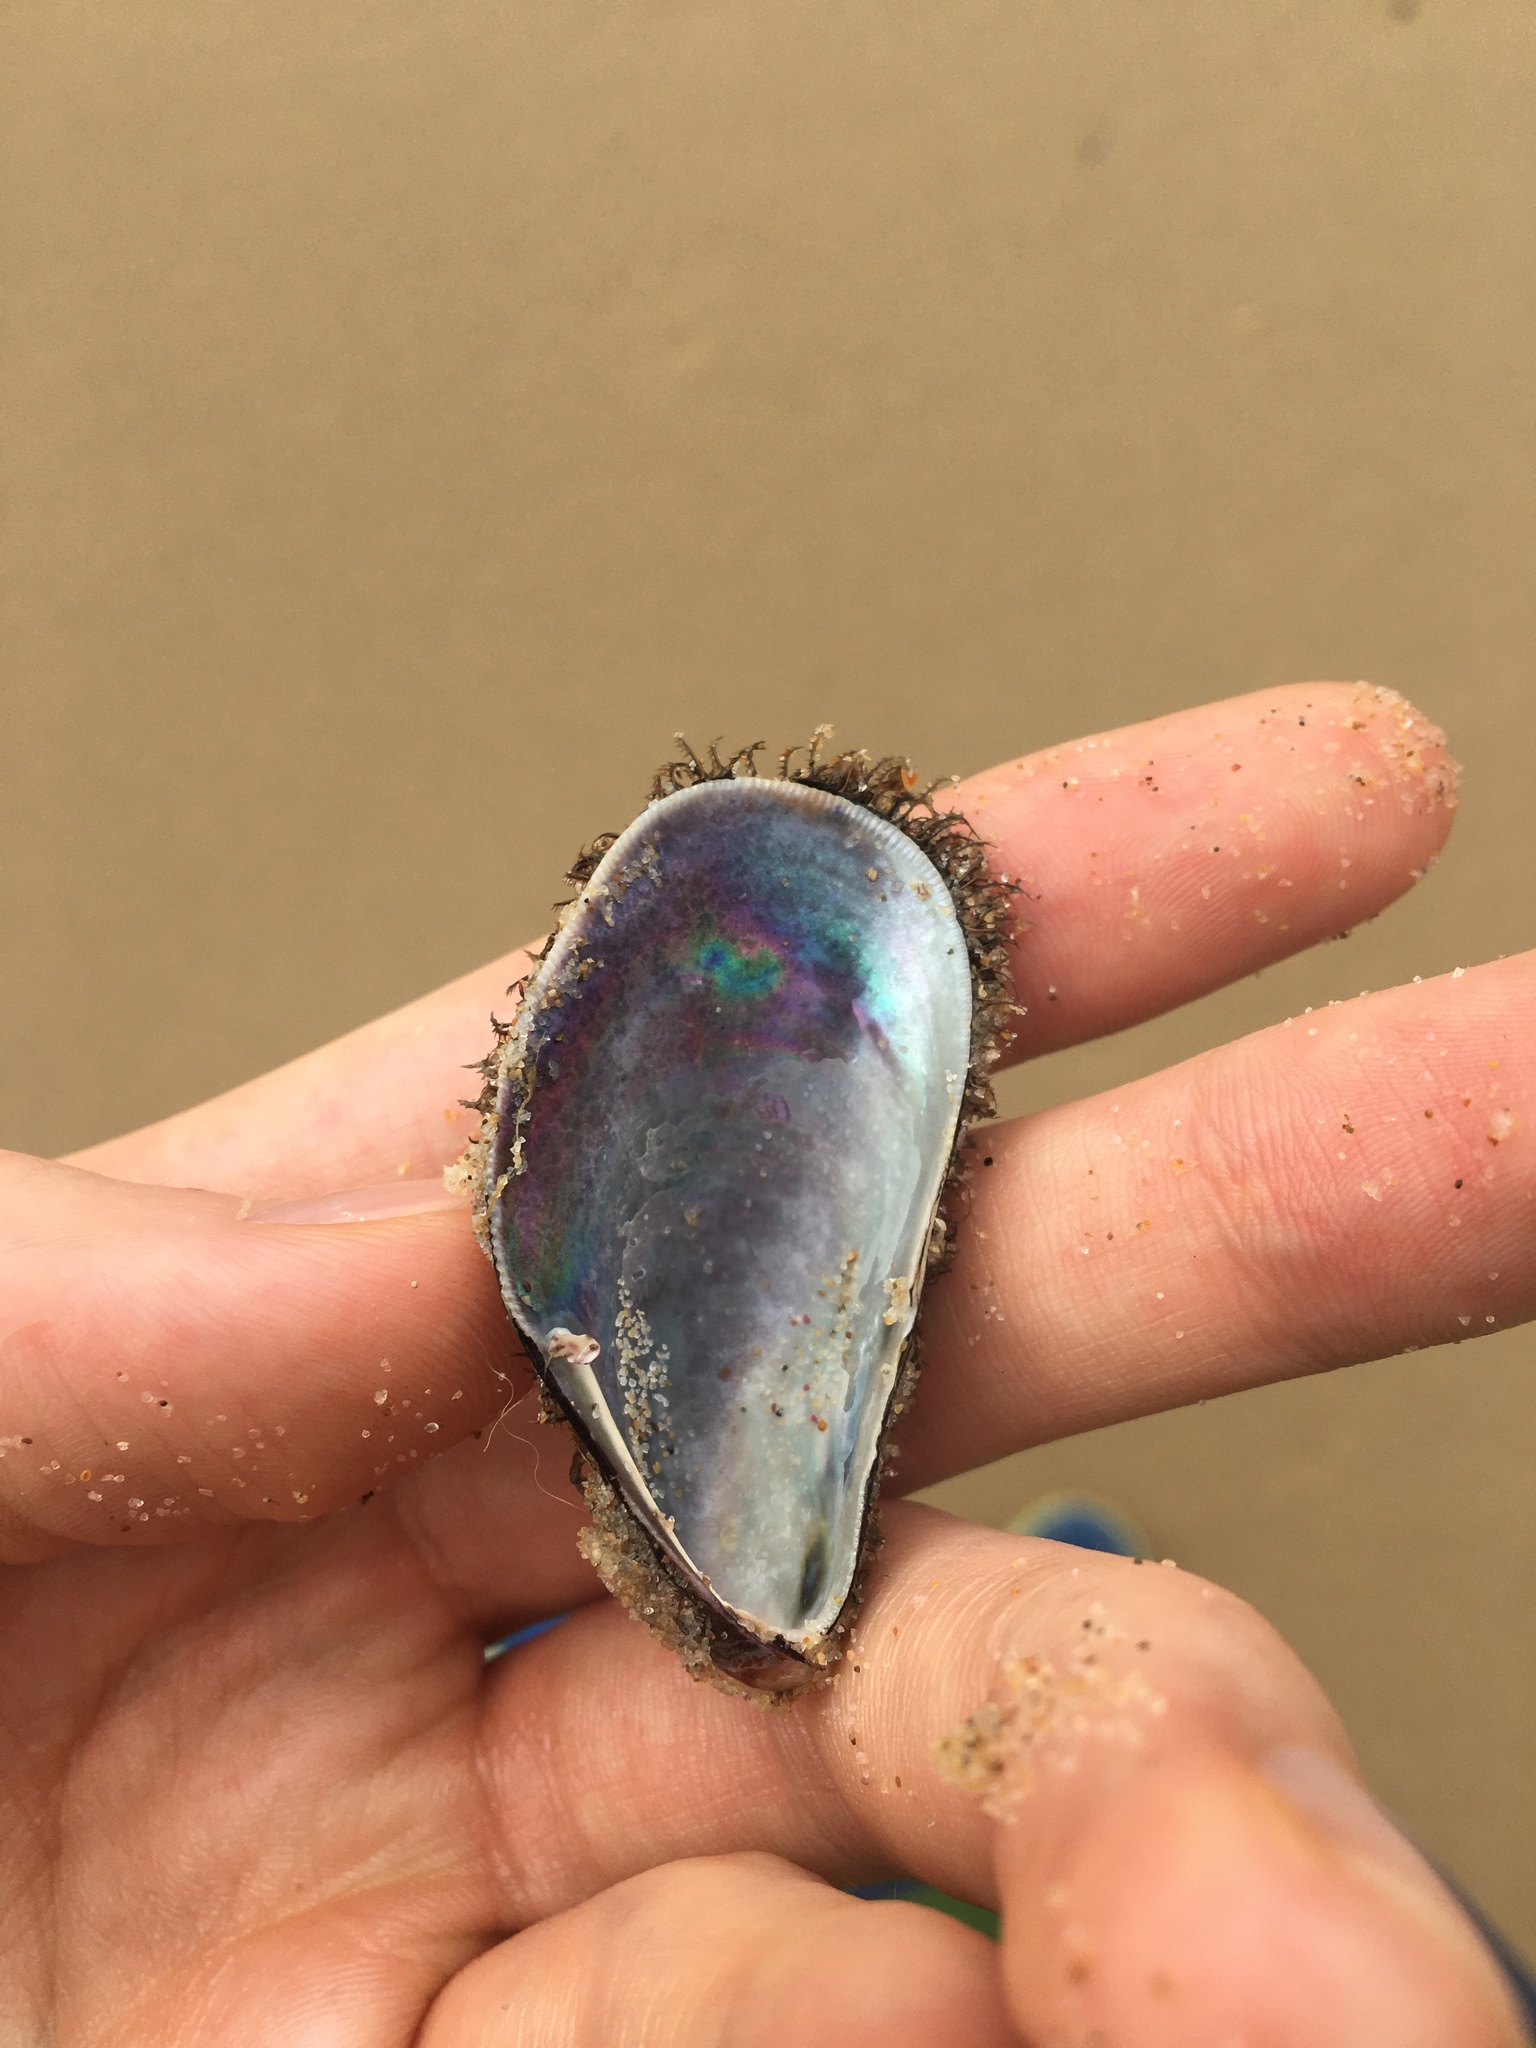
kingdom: Animalia
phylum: Mollusca
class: Bivalvia
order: Mytilida
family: Mytilidae
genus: Trichomya
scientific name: Trichomya hirsuta
